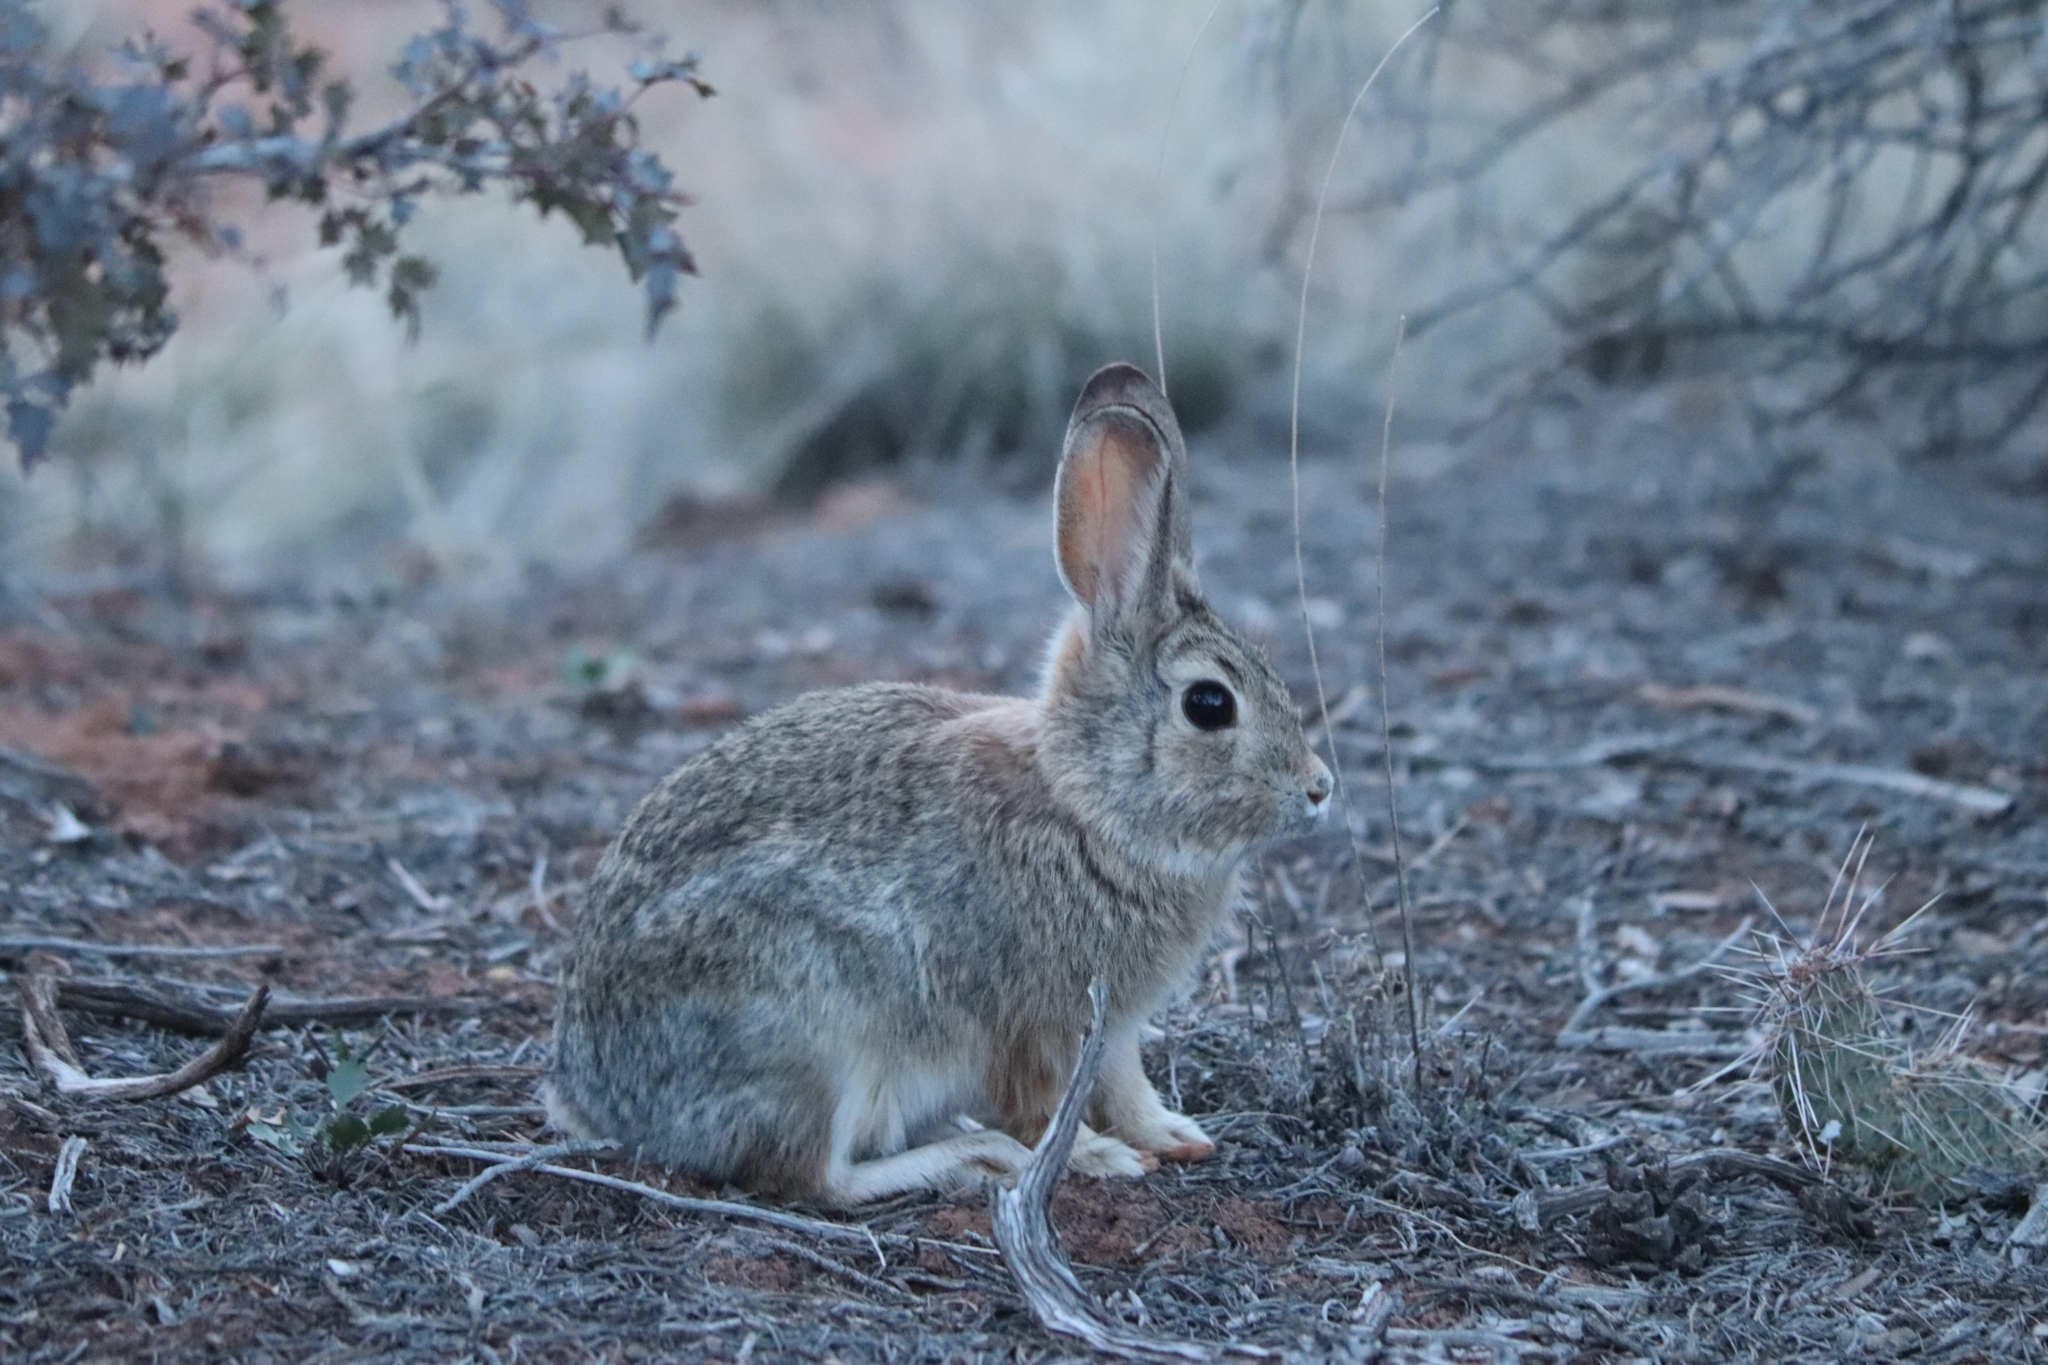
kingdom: Animalia
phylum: Chordata
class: Mammalia
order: Lagomorpha
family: Leporidae
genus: Sylvilagus
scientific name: Sylvilagus audubonii
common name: Desert cottontail
